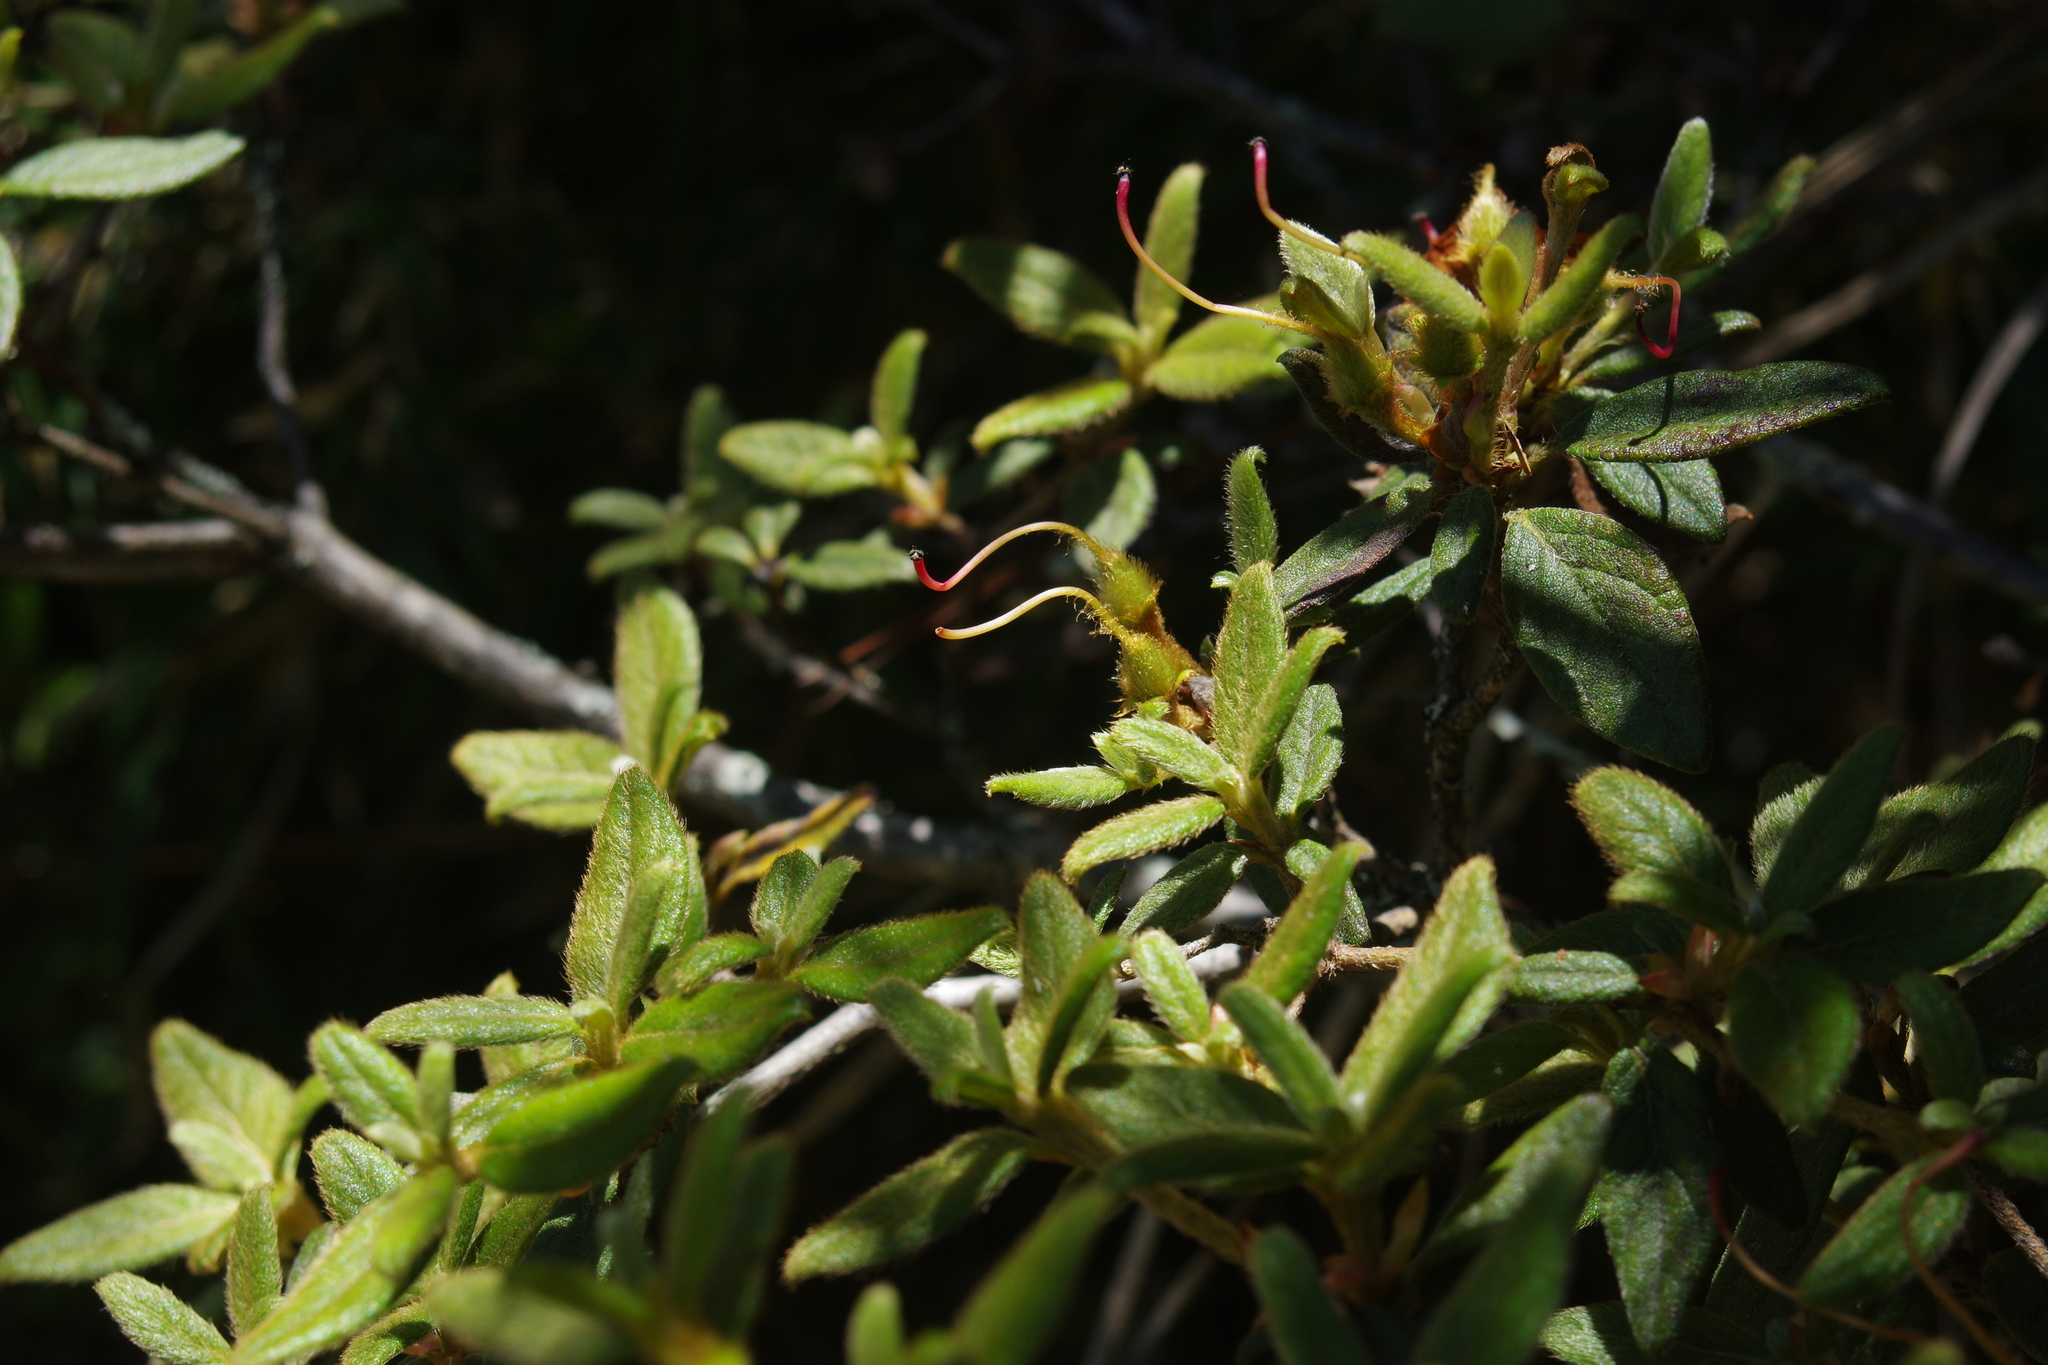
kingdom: Plantae
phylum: Tracheophyta
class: Magnoliopsida
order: Ericales
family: Ericaceae
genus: Rhododendron
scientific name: Rhododendron rubropilosum
